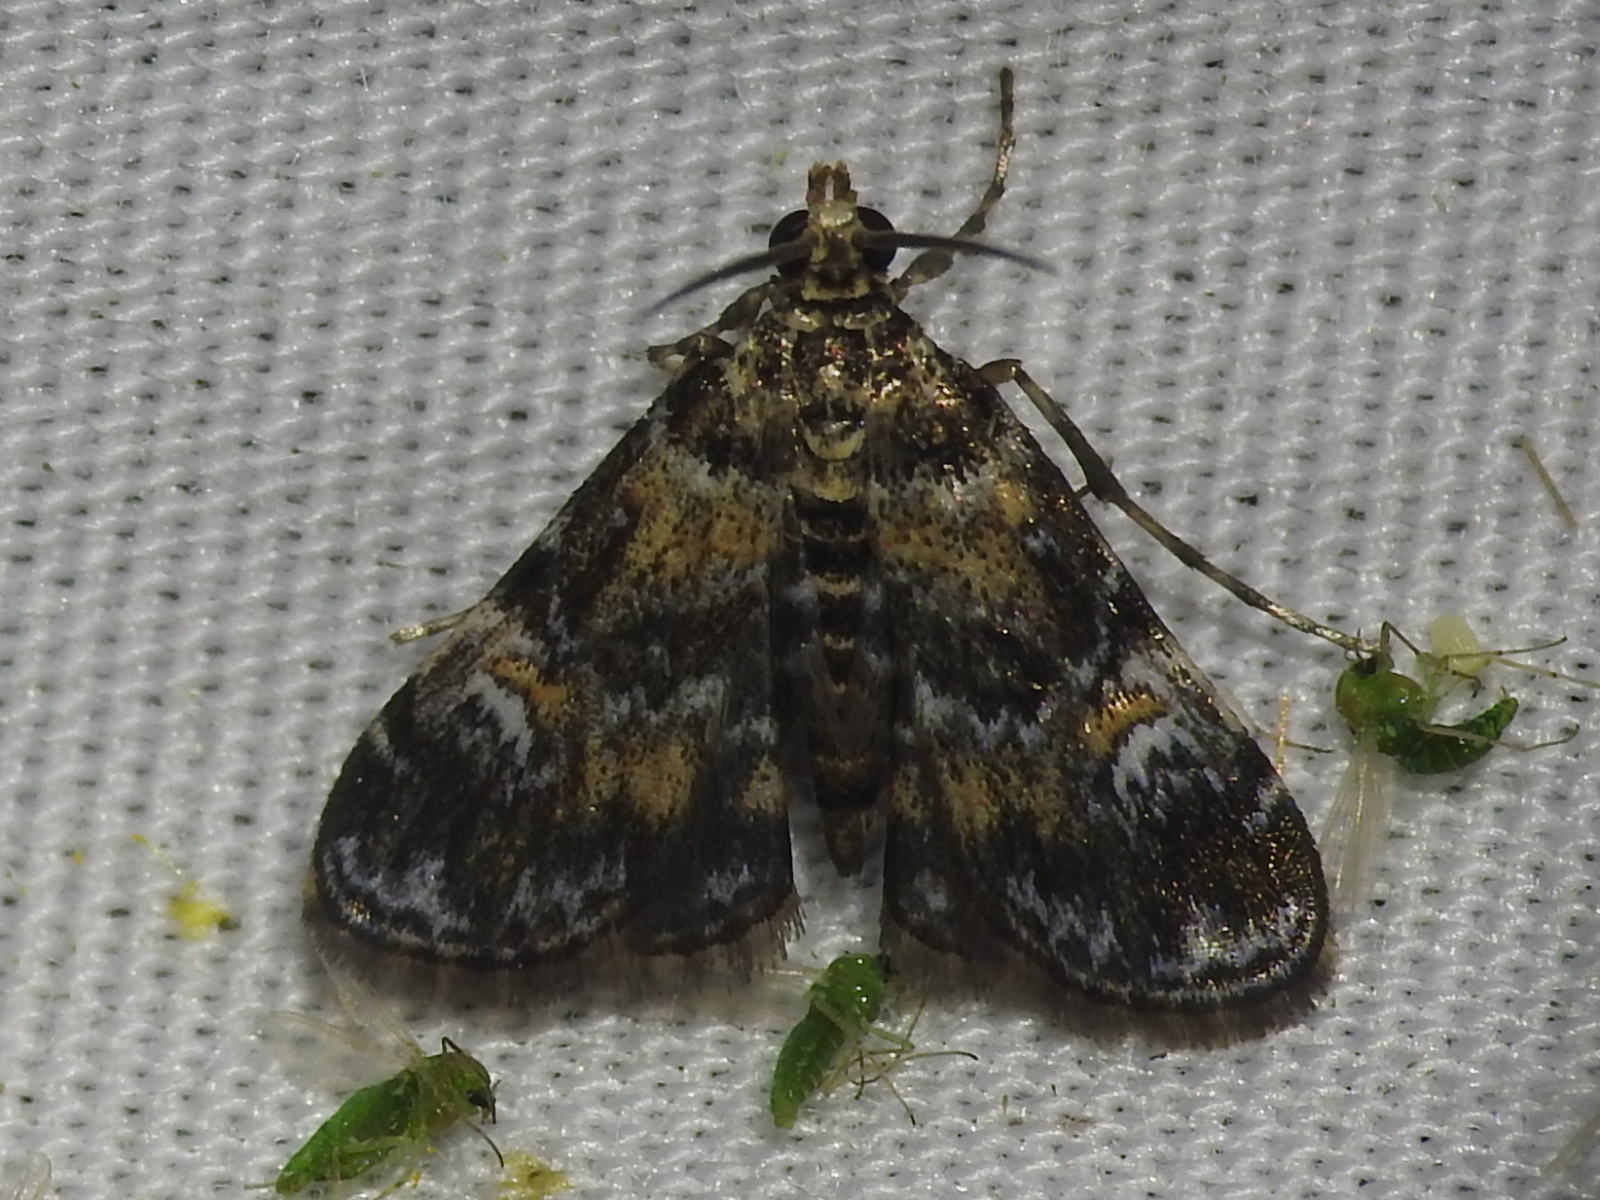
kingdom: Animalia
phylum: Arthropoda
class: Insecta
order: Lepidoptera
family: Crambidae
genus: Elophila
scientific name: Elophila obliteralis
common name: Waterlily leafcutter moth
